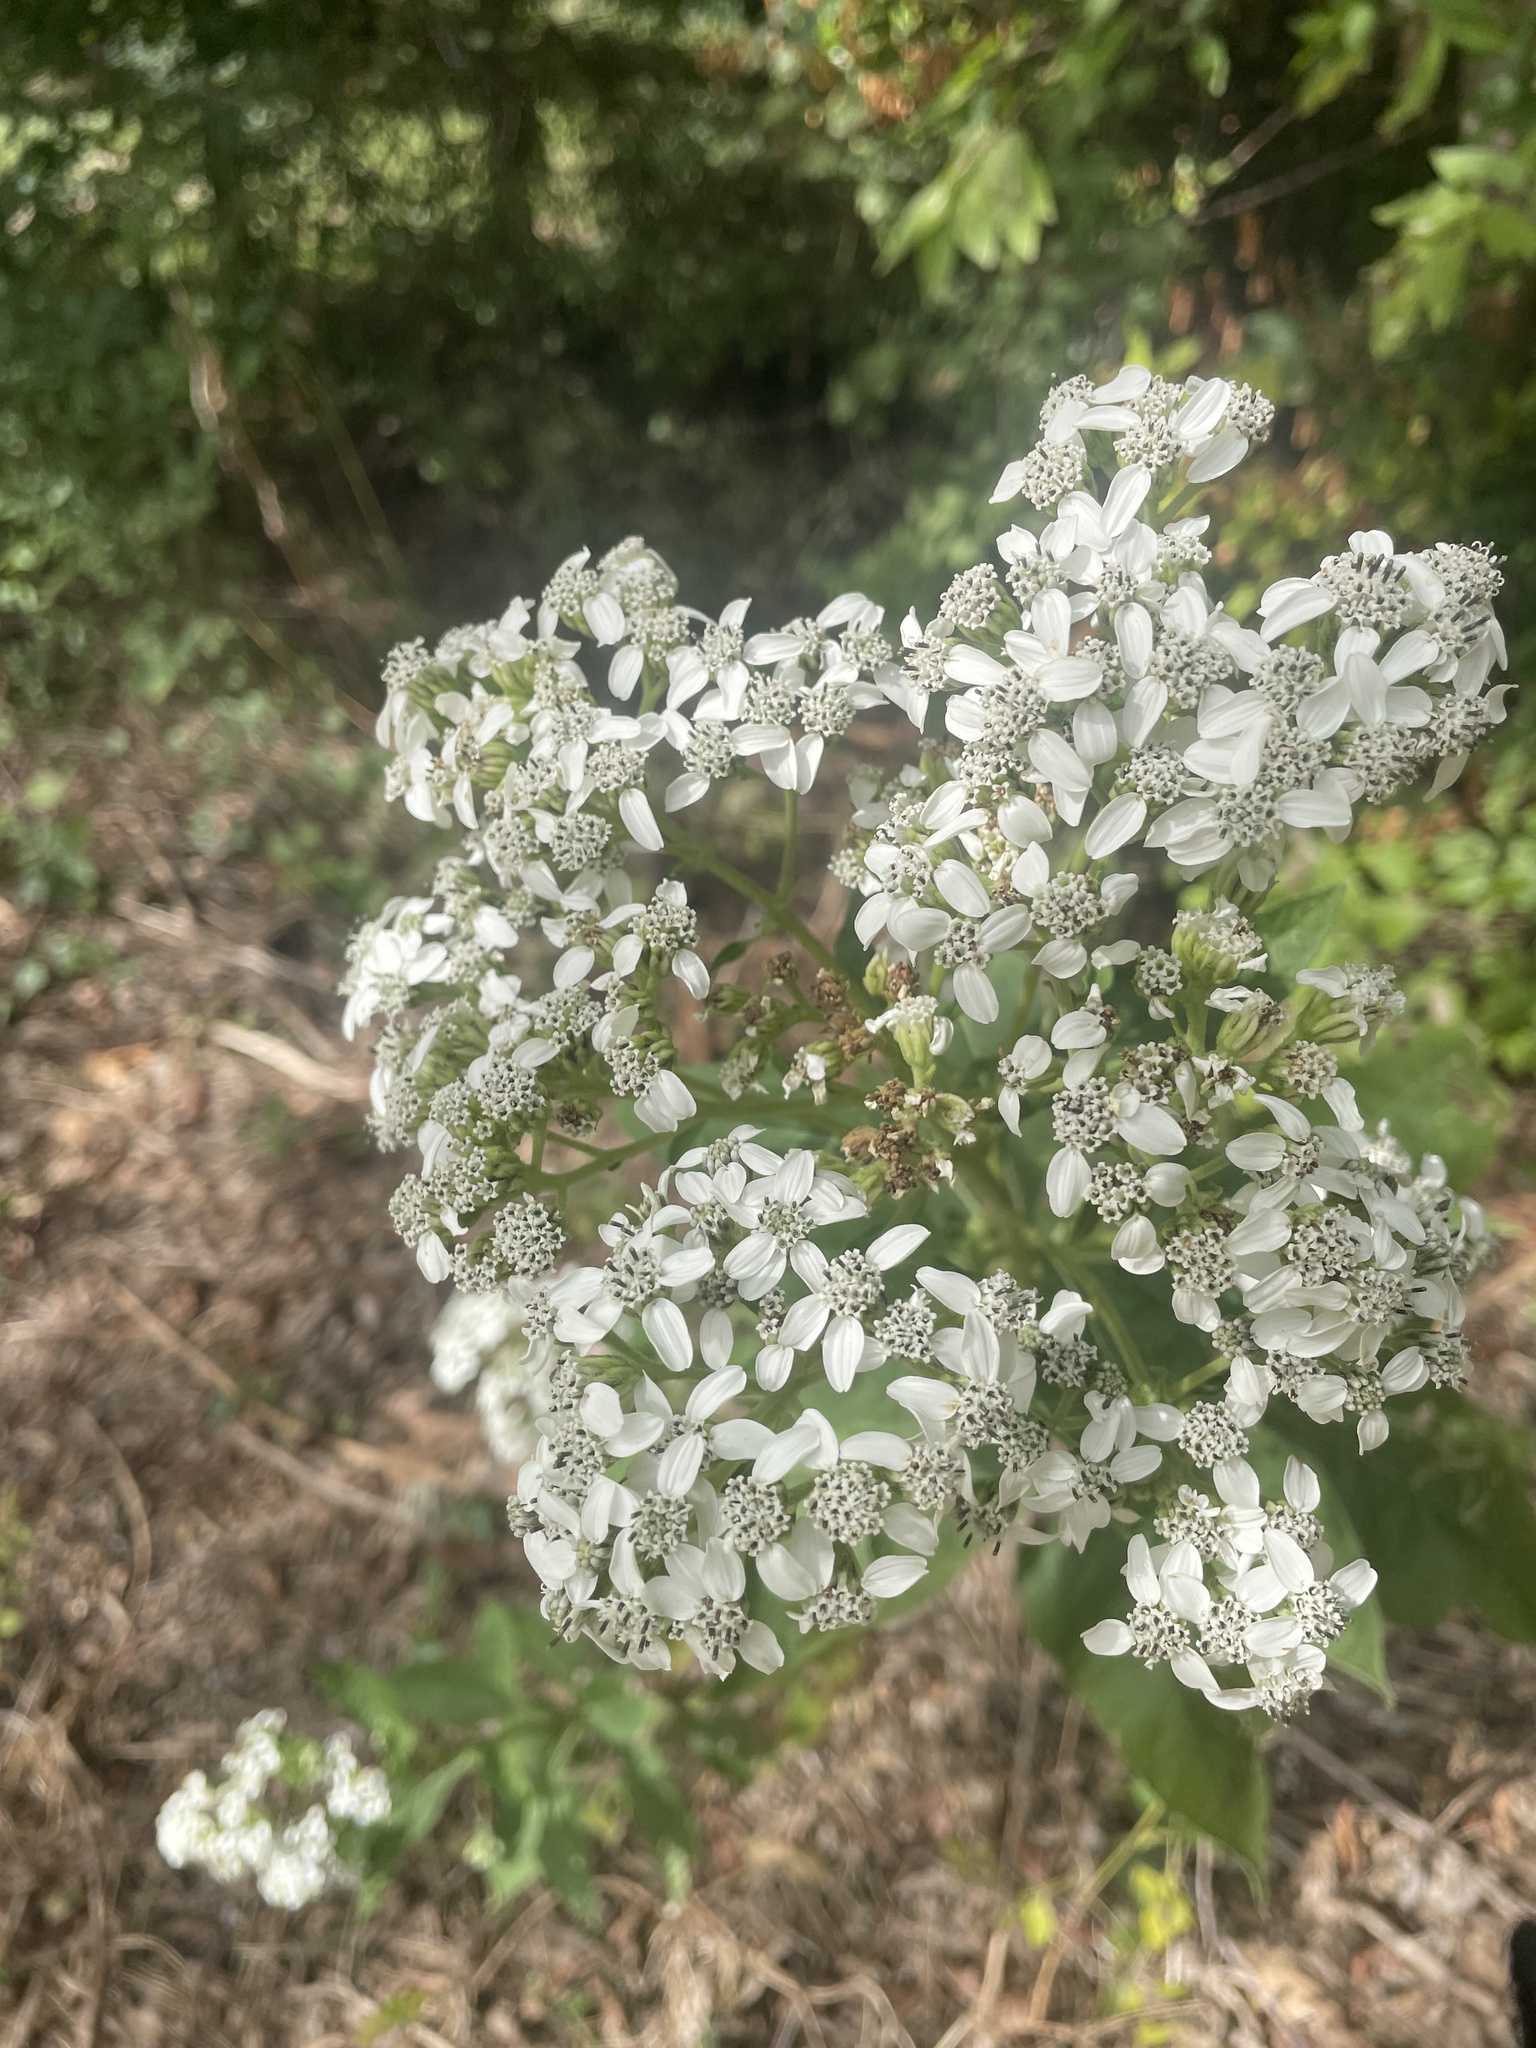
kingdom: Plantae
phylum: Tracheophyta
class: Magnoliopsida
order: Asterales
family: Asteraceae
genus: Verbesina
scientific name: Verbesina virginica
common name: Frostweed
